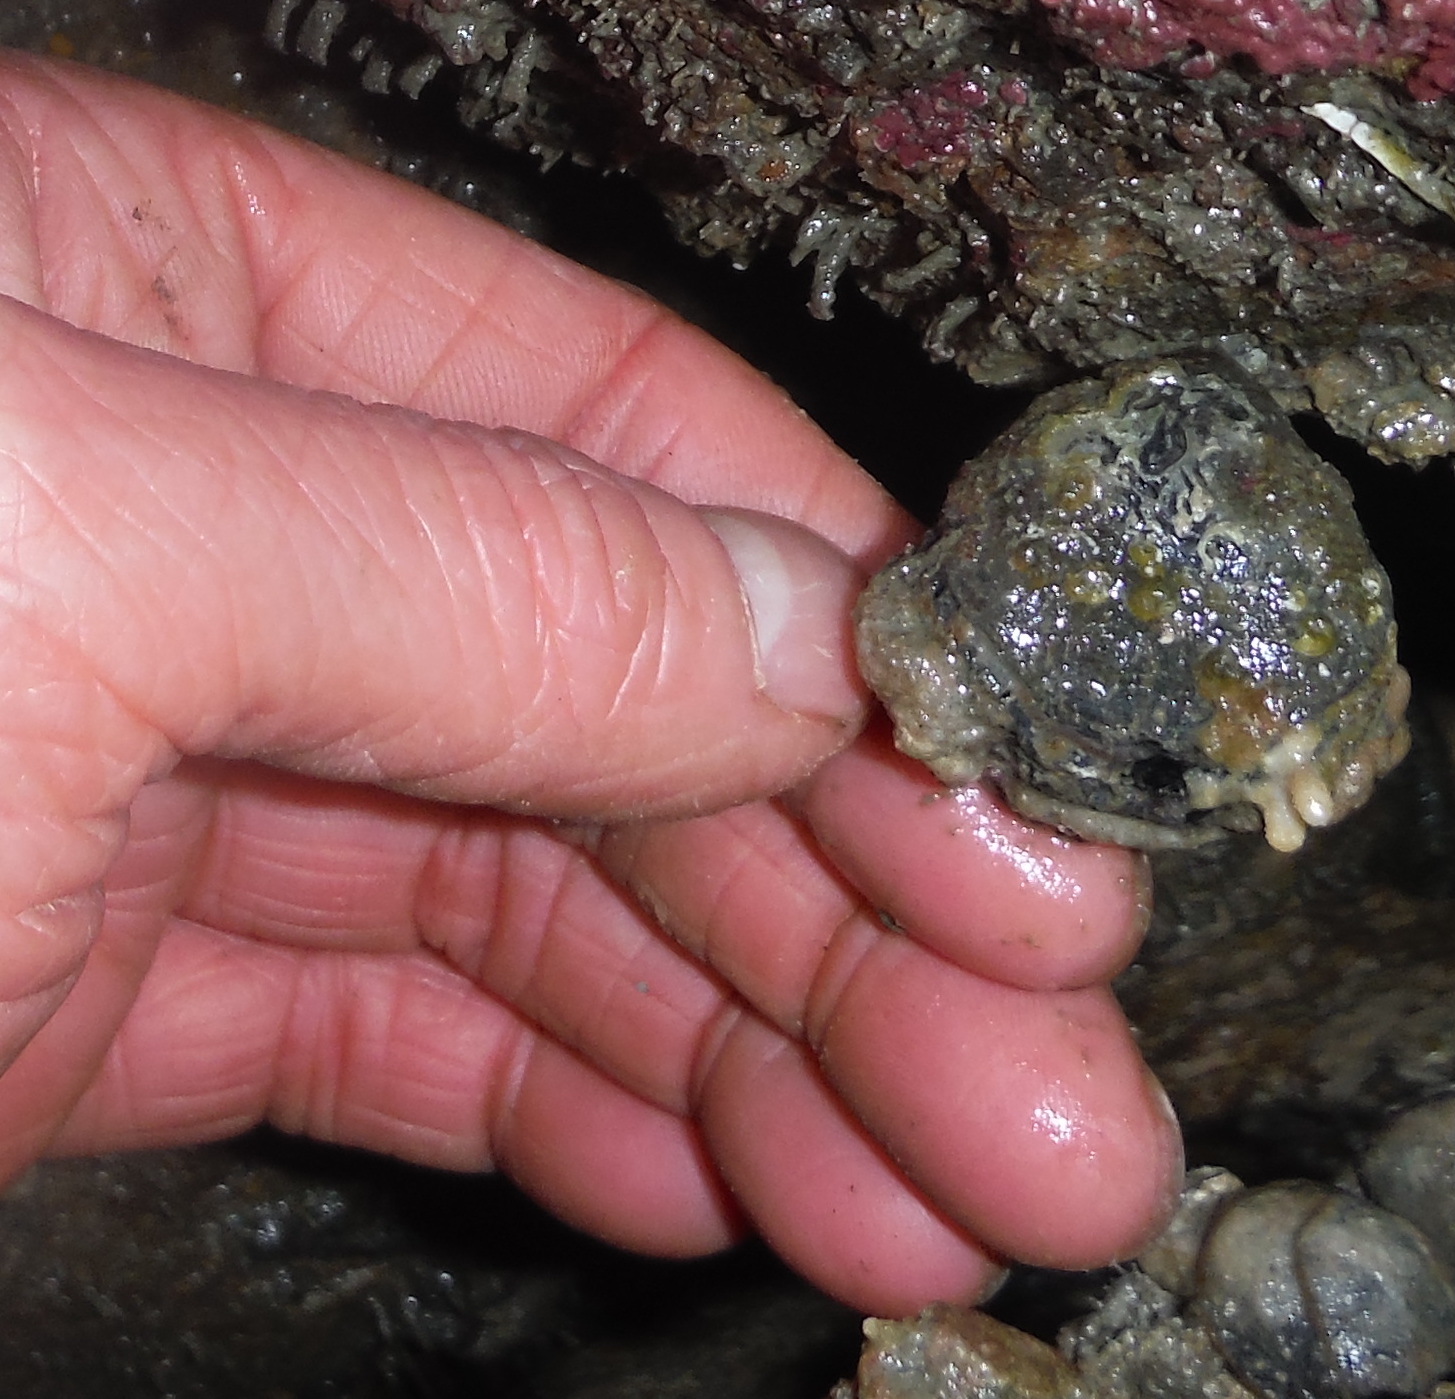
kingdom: Animalia
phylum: Brachiopoda
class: Rhynchonellata
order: Rhynchonellida
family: Hemithirididae
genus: Hemithiris
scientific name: Hemithiris psittacea
